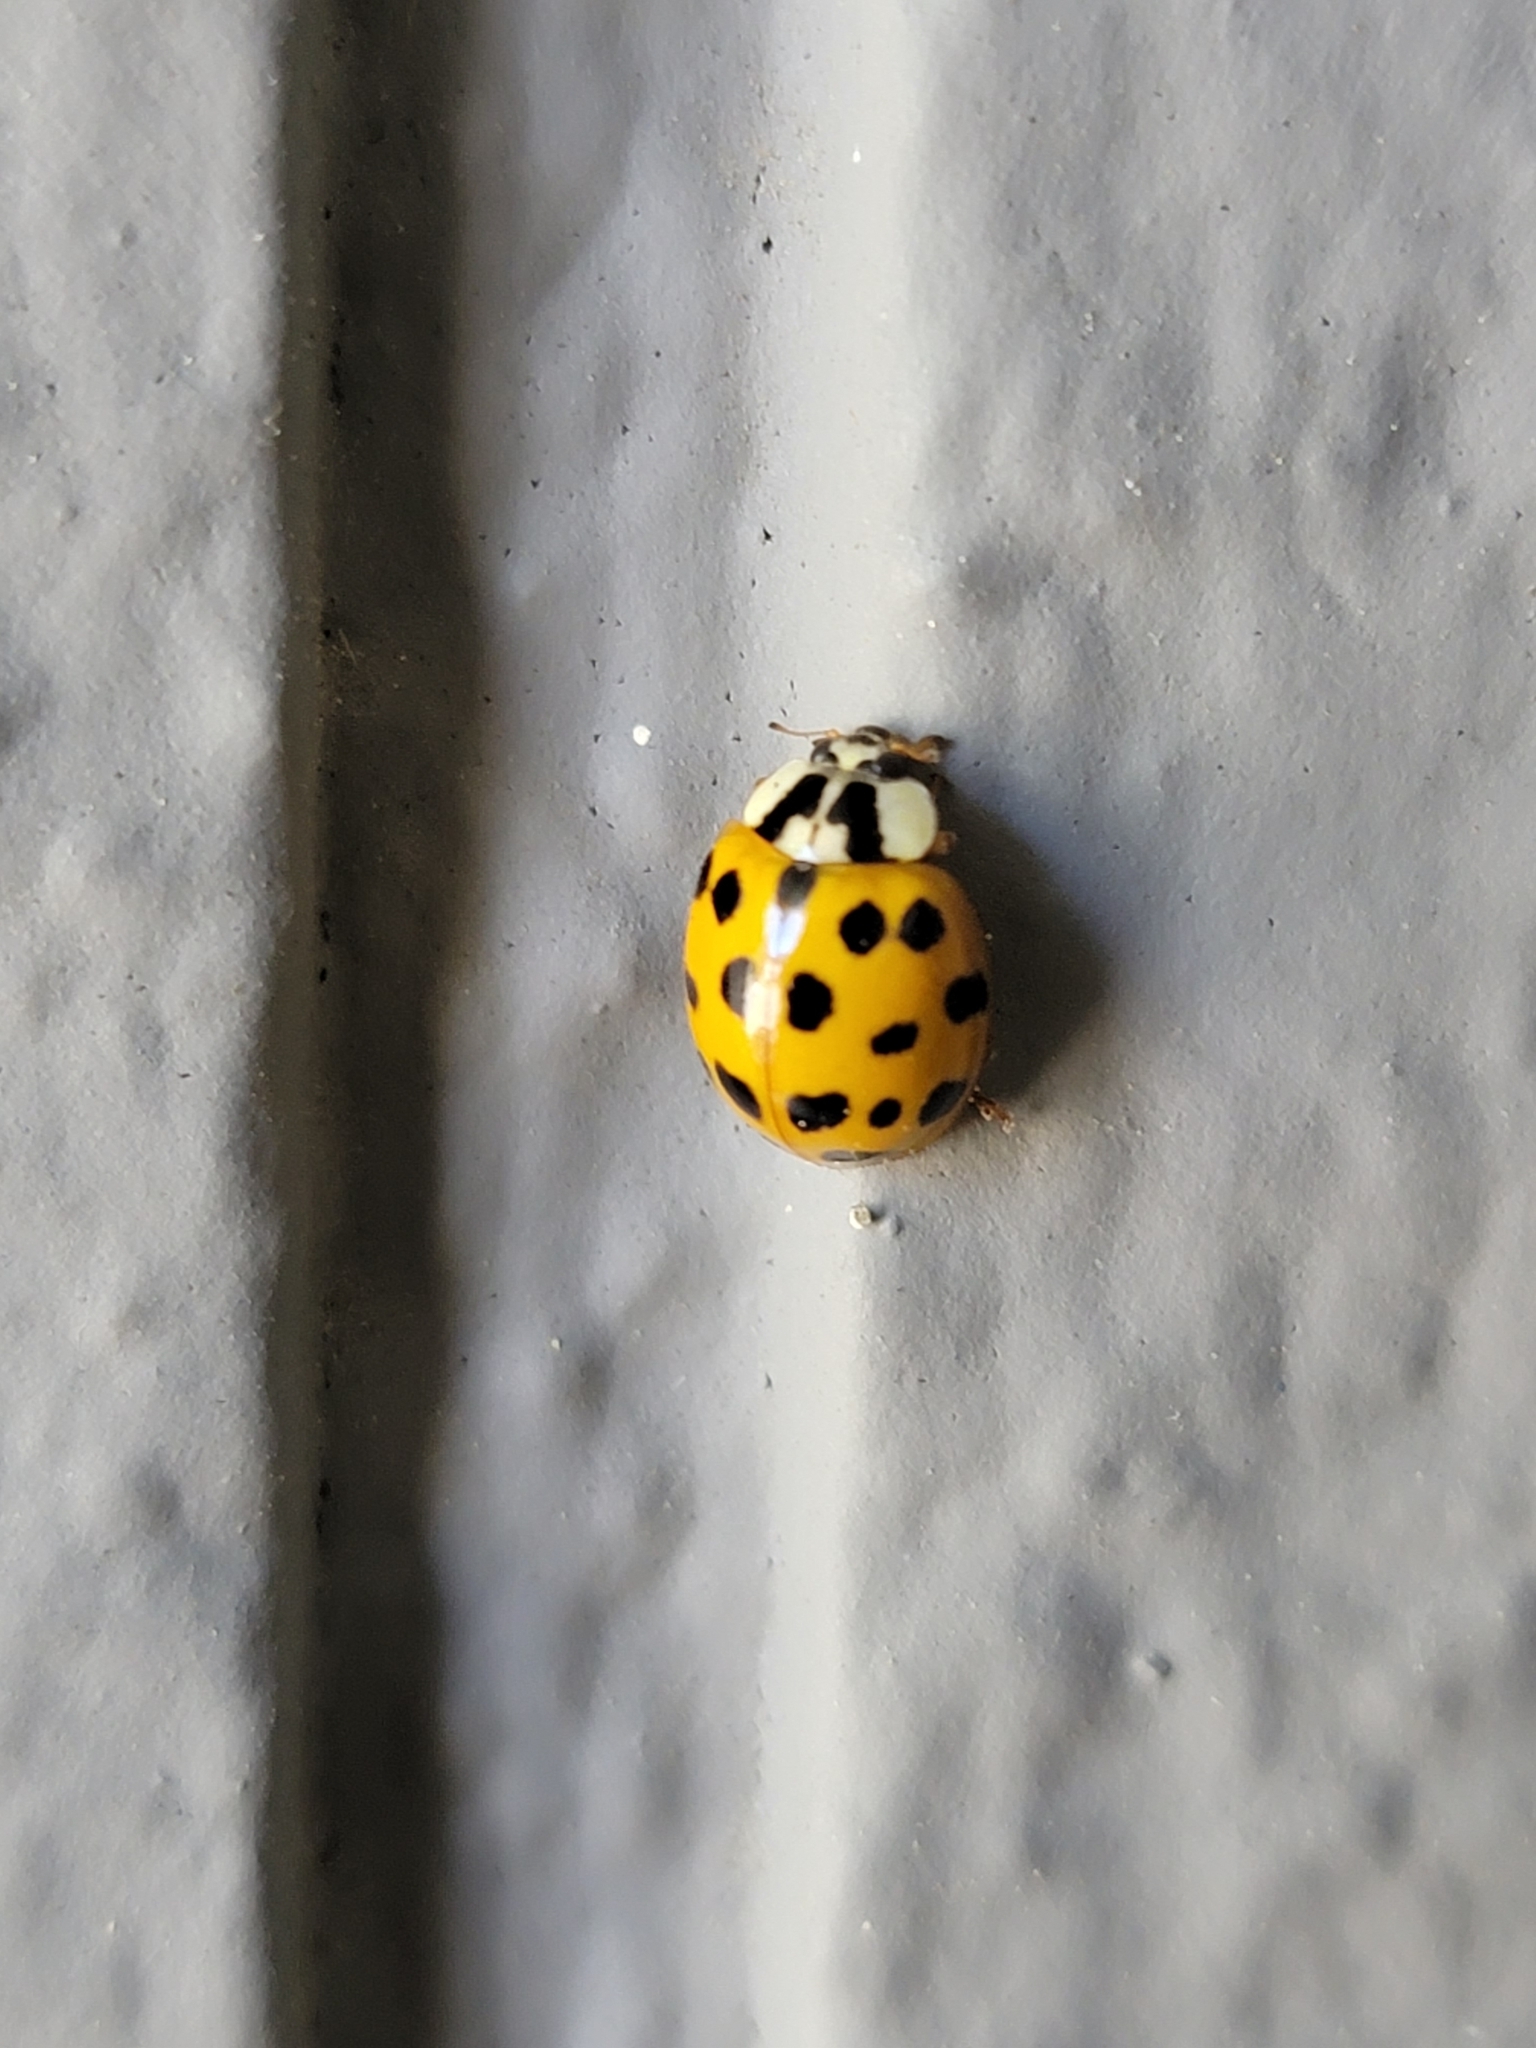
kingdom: Animalia
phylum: Arthropoda
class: Insecta
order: Coleoptera
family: Coccinellidae
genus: Harmonia
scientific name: Harmonia axyridis
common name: Harlequin ladybird
